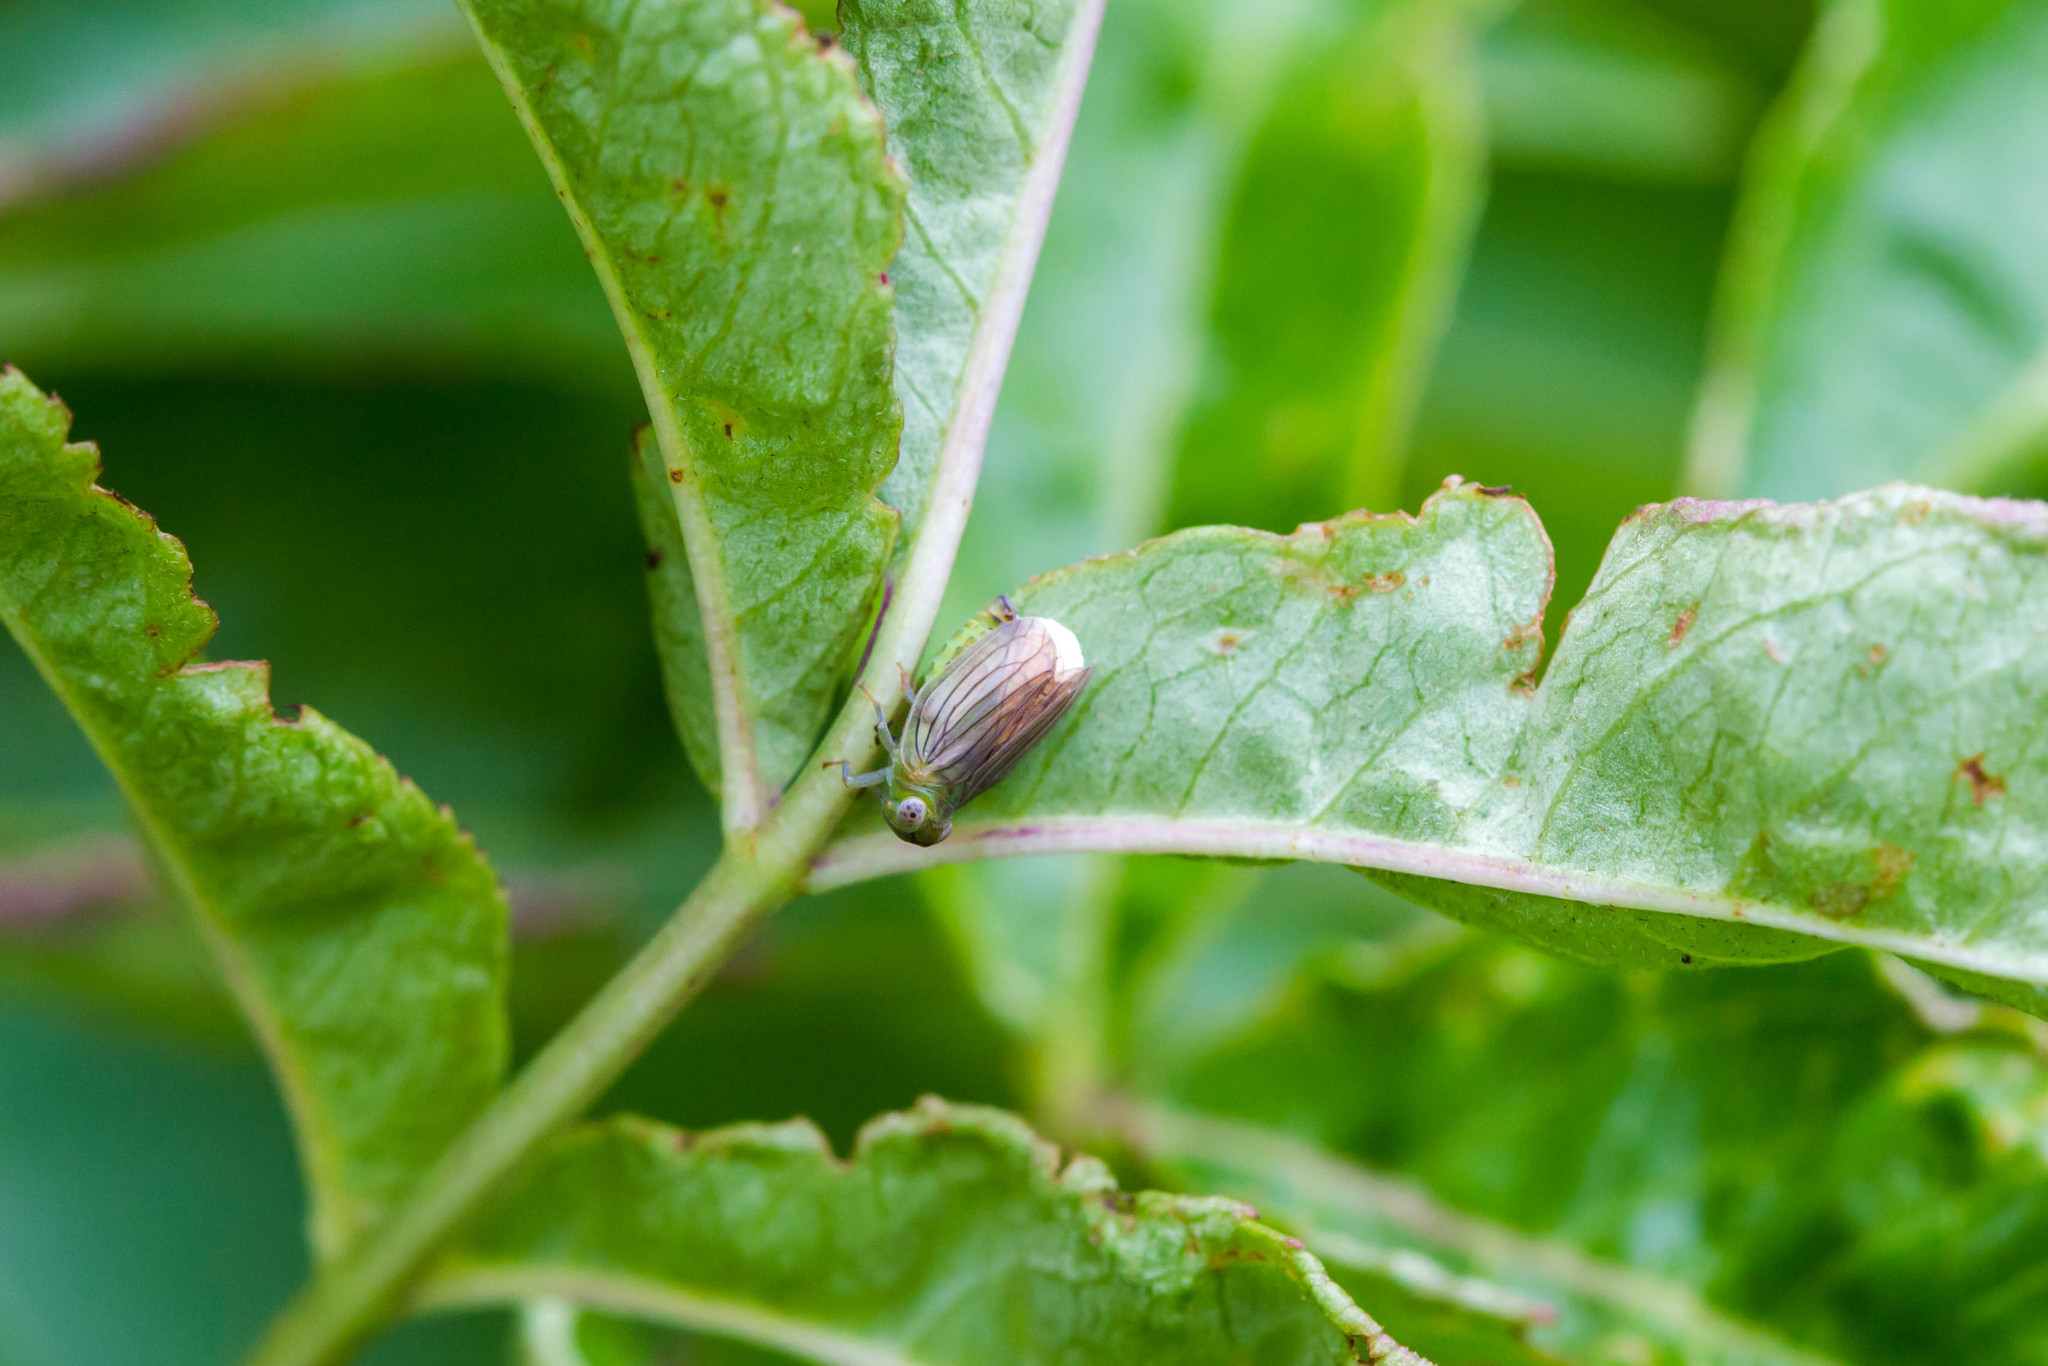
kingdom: Animalia
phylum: Arthropoda
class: Insecta
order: Hemiptera
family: Issidae
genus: Aplos
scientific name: Aplos simplex
